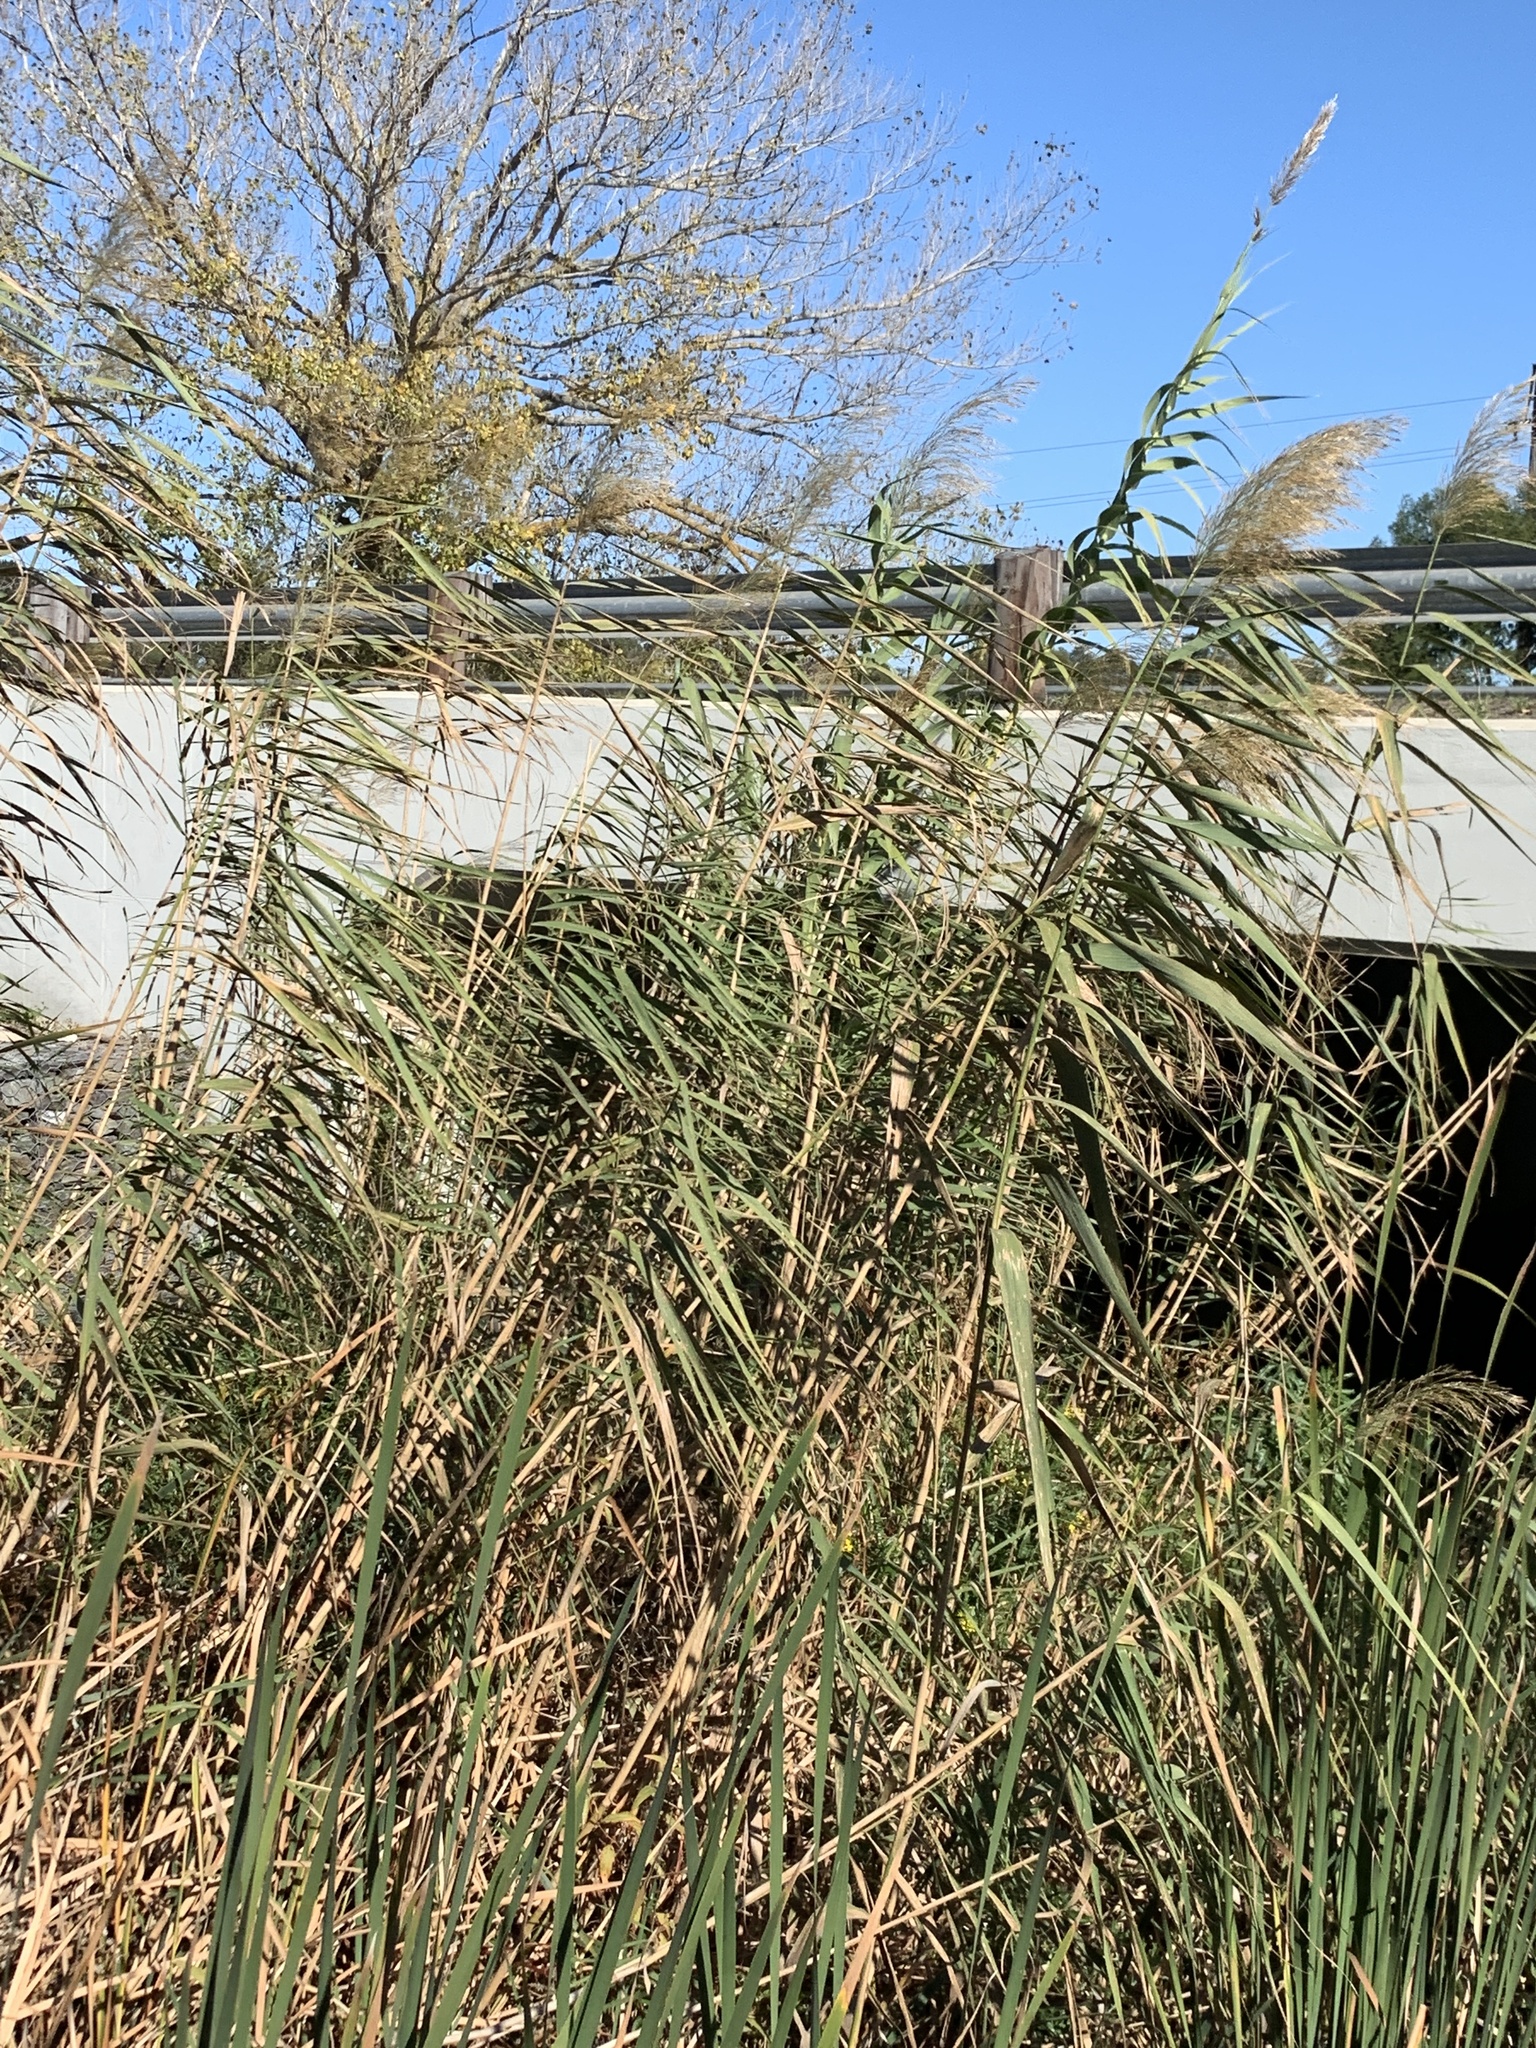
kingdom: Plantae
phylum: Tracheophyta
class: Liliopsida
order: Poales
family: Poaceae
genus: Phragmites
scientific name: Phragmites australis
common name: Common reed
